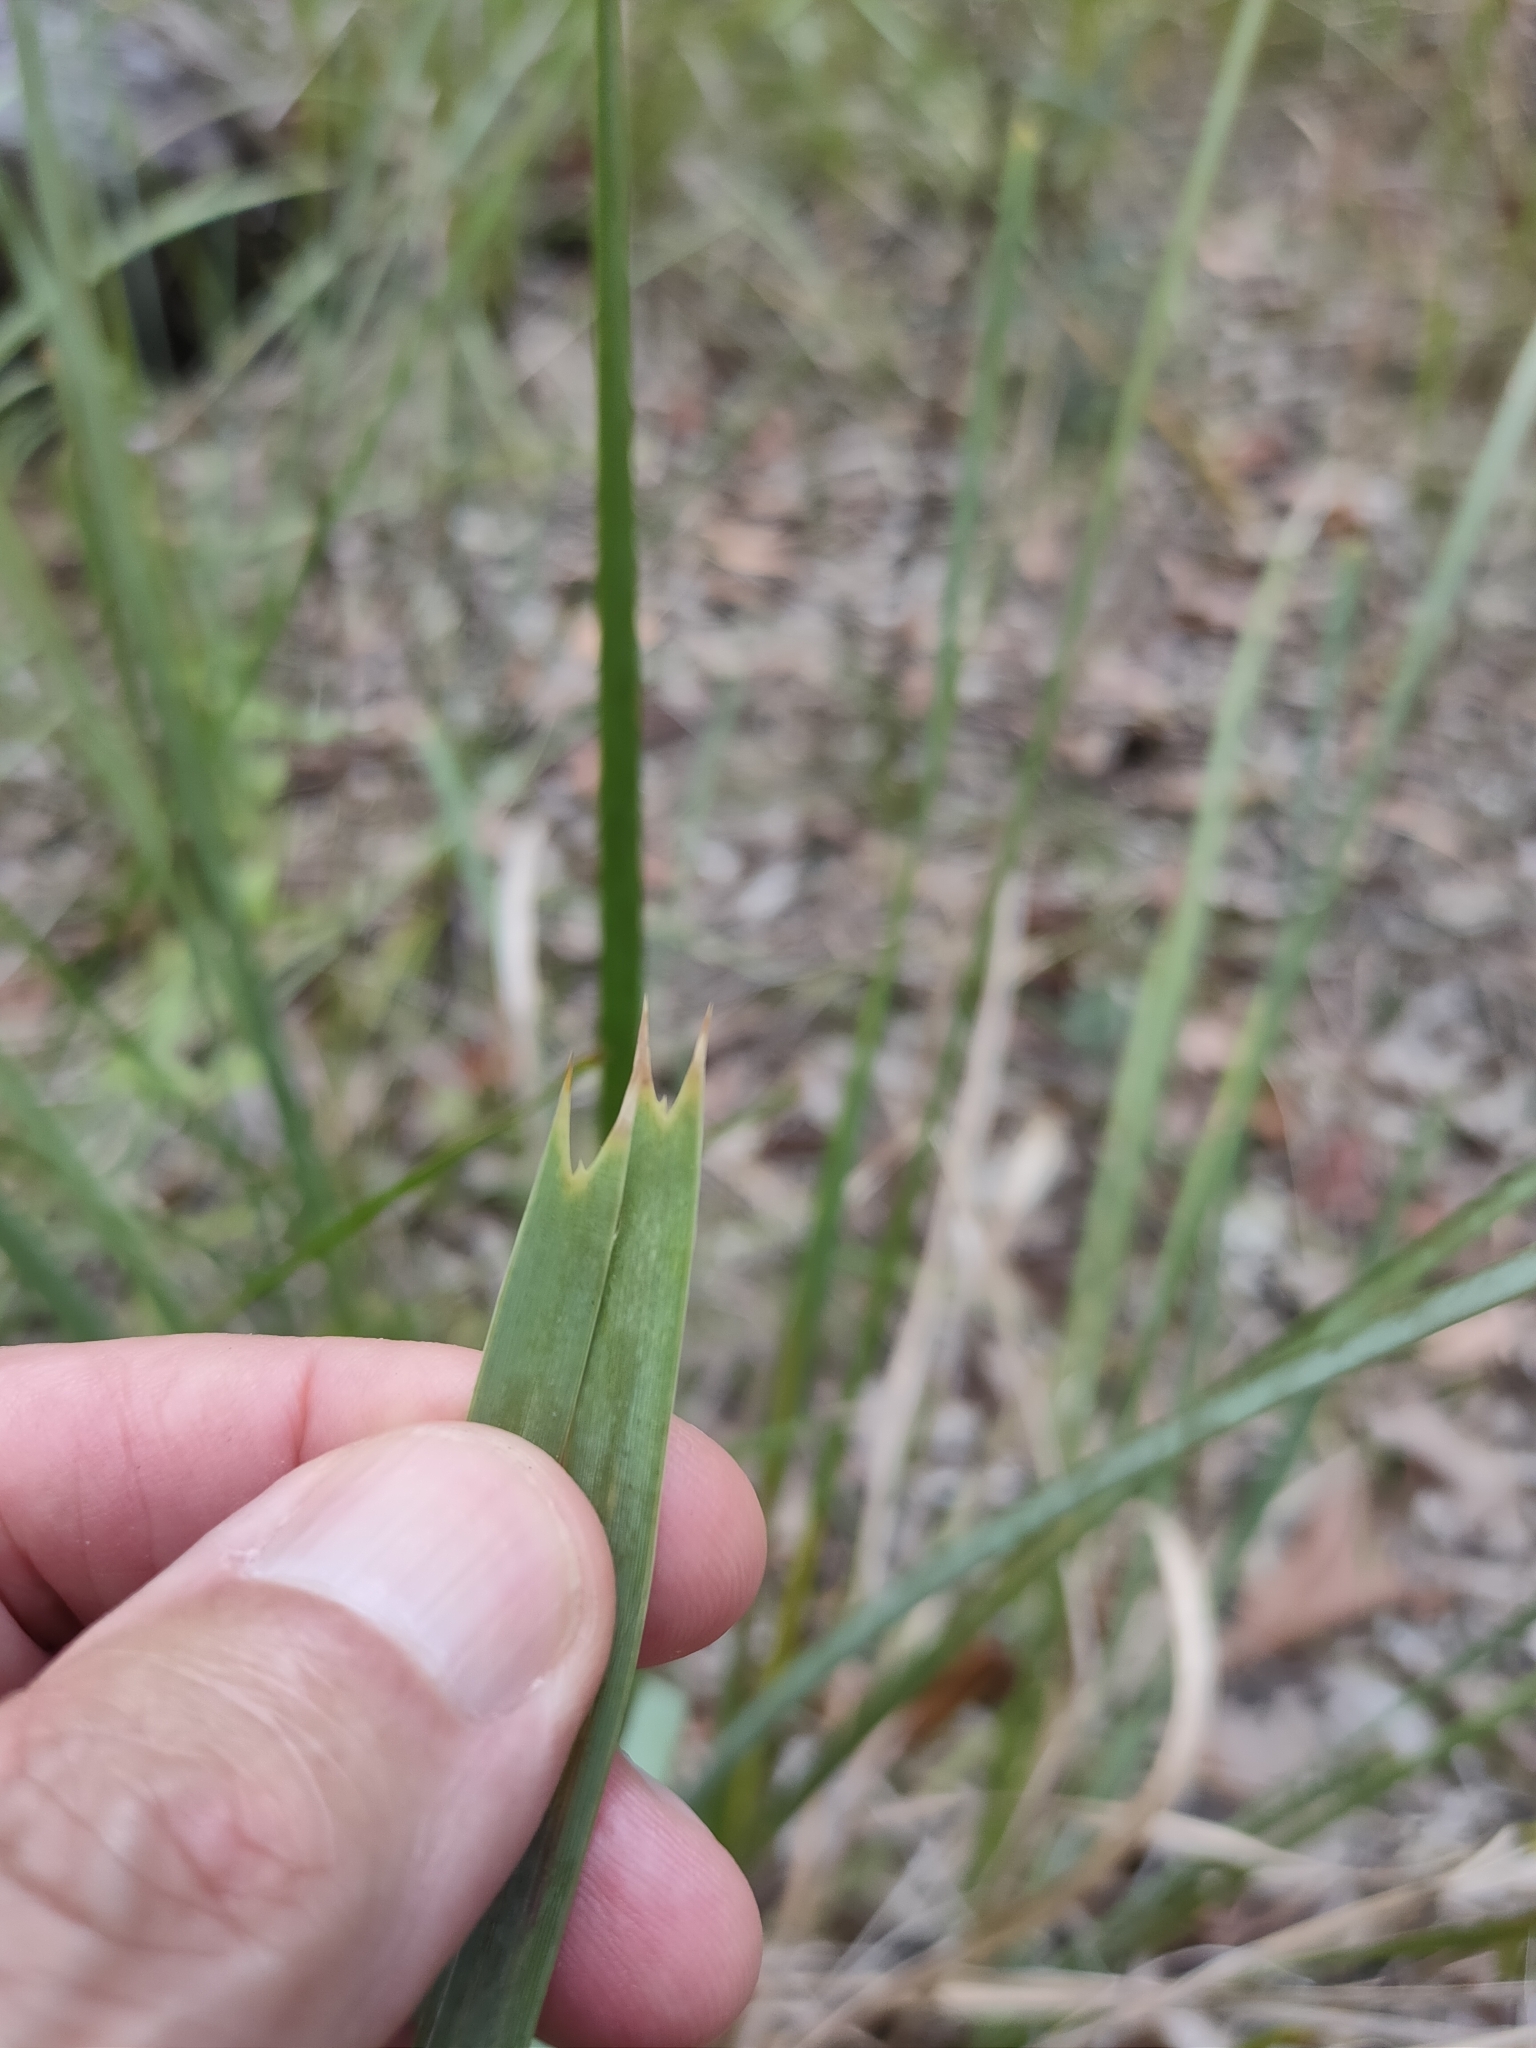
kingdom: Plantae
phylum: Tracheophyta
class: Liliopsida
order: Asparagales
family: Asparagaceae
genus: Lomandra
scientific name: Lomandra longifolia
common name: Longleaf mat-rush
